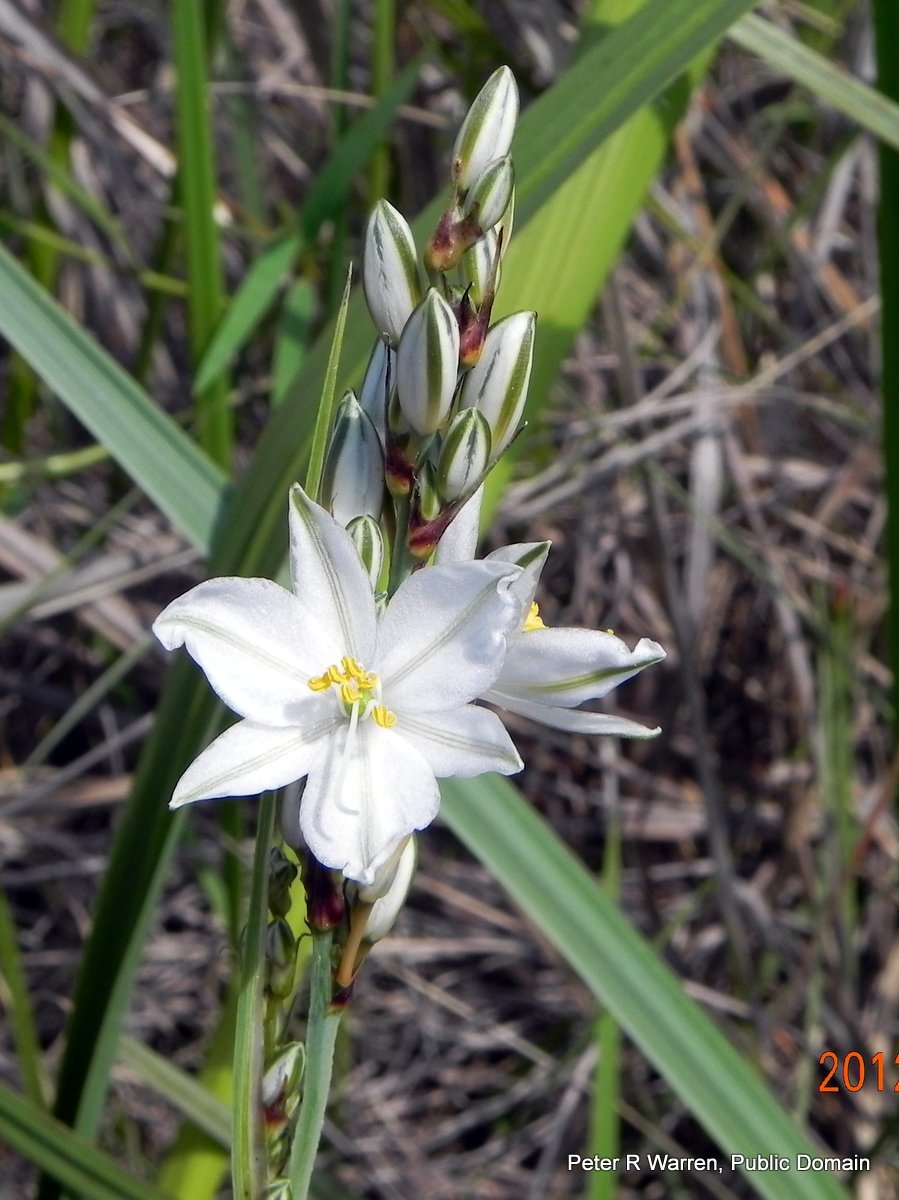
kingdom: Plantae
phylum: Tracheophyta
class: Liliopsida
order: Asparagales
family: Asparagaceae
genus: Chlorophytum
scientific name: Chlorophytum cooperi
